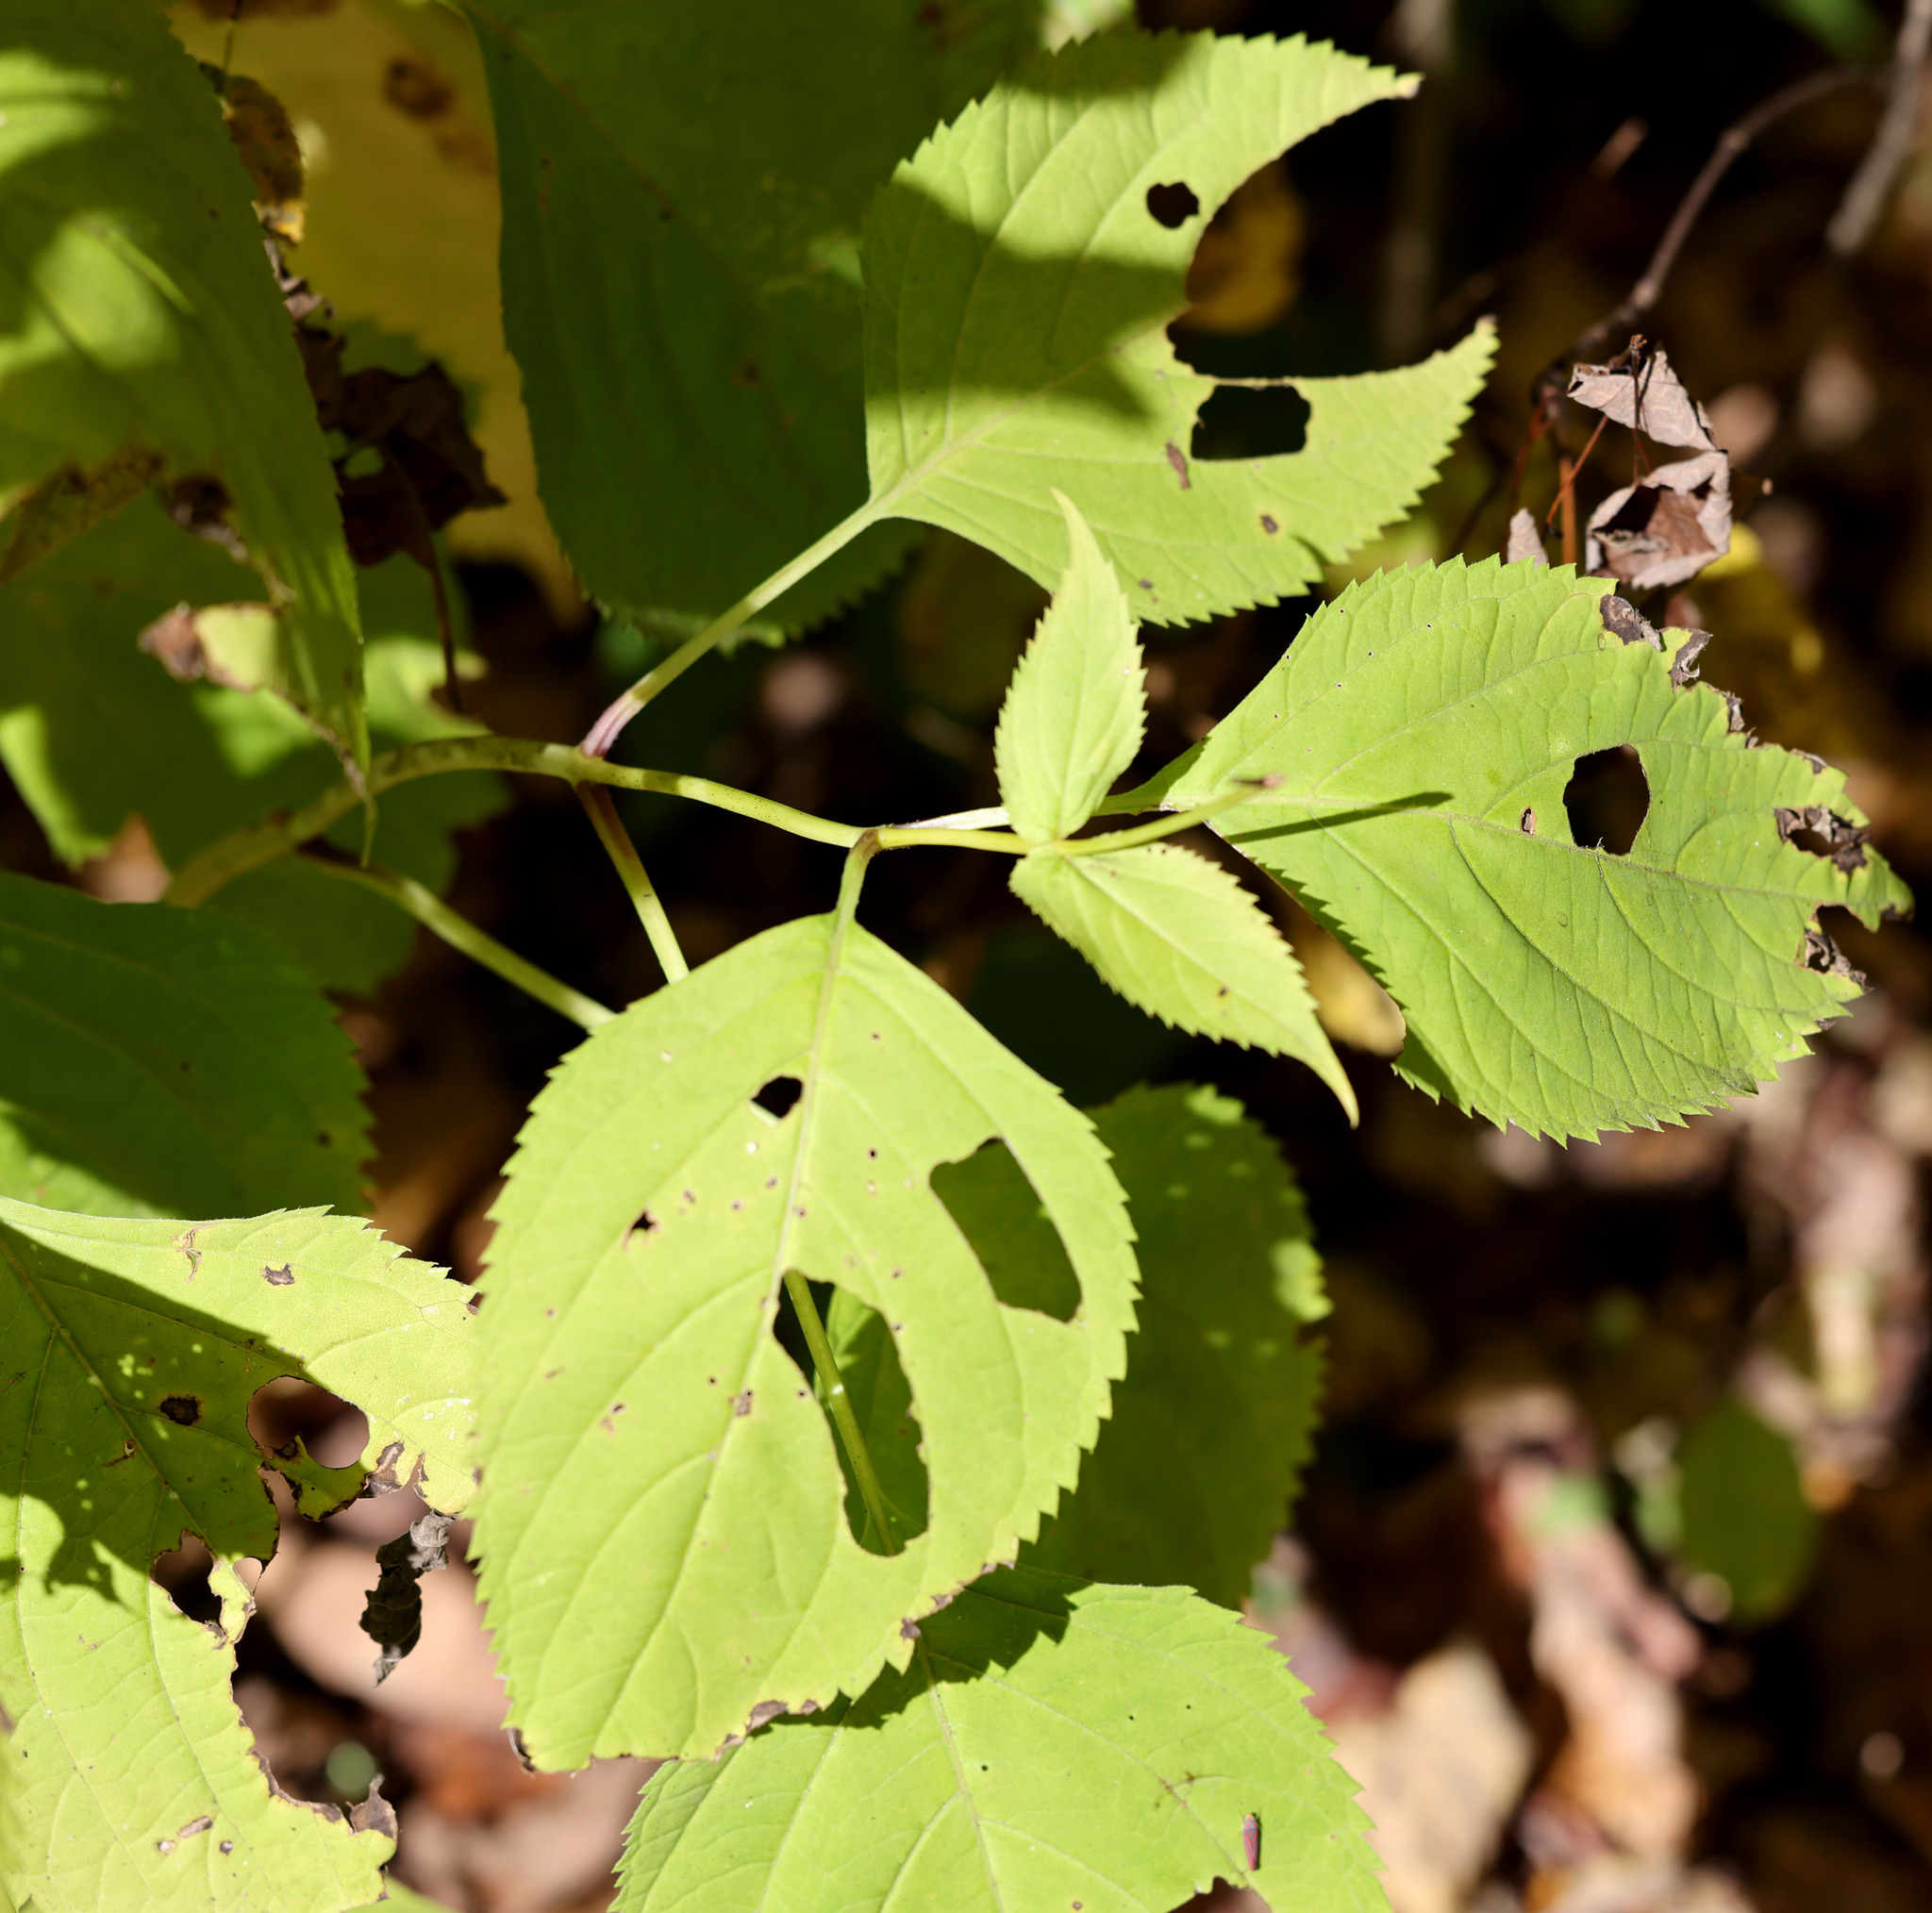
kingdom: Plantae
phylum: Tracheophyta
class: Magnoliopsida
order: Lamiales
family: Lamiaceae
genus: Collinsonia
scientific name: Collinsonia canadensis
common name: Northern horsebalm
